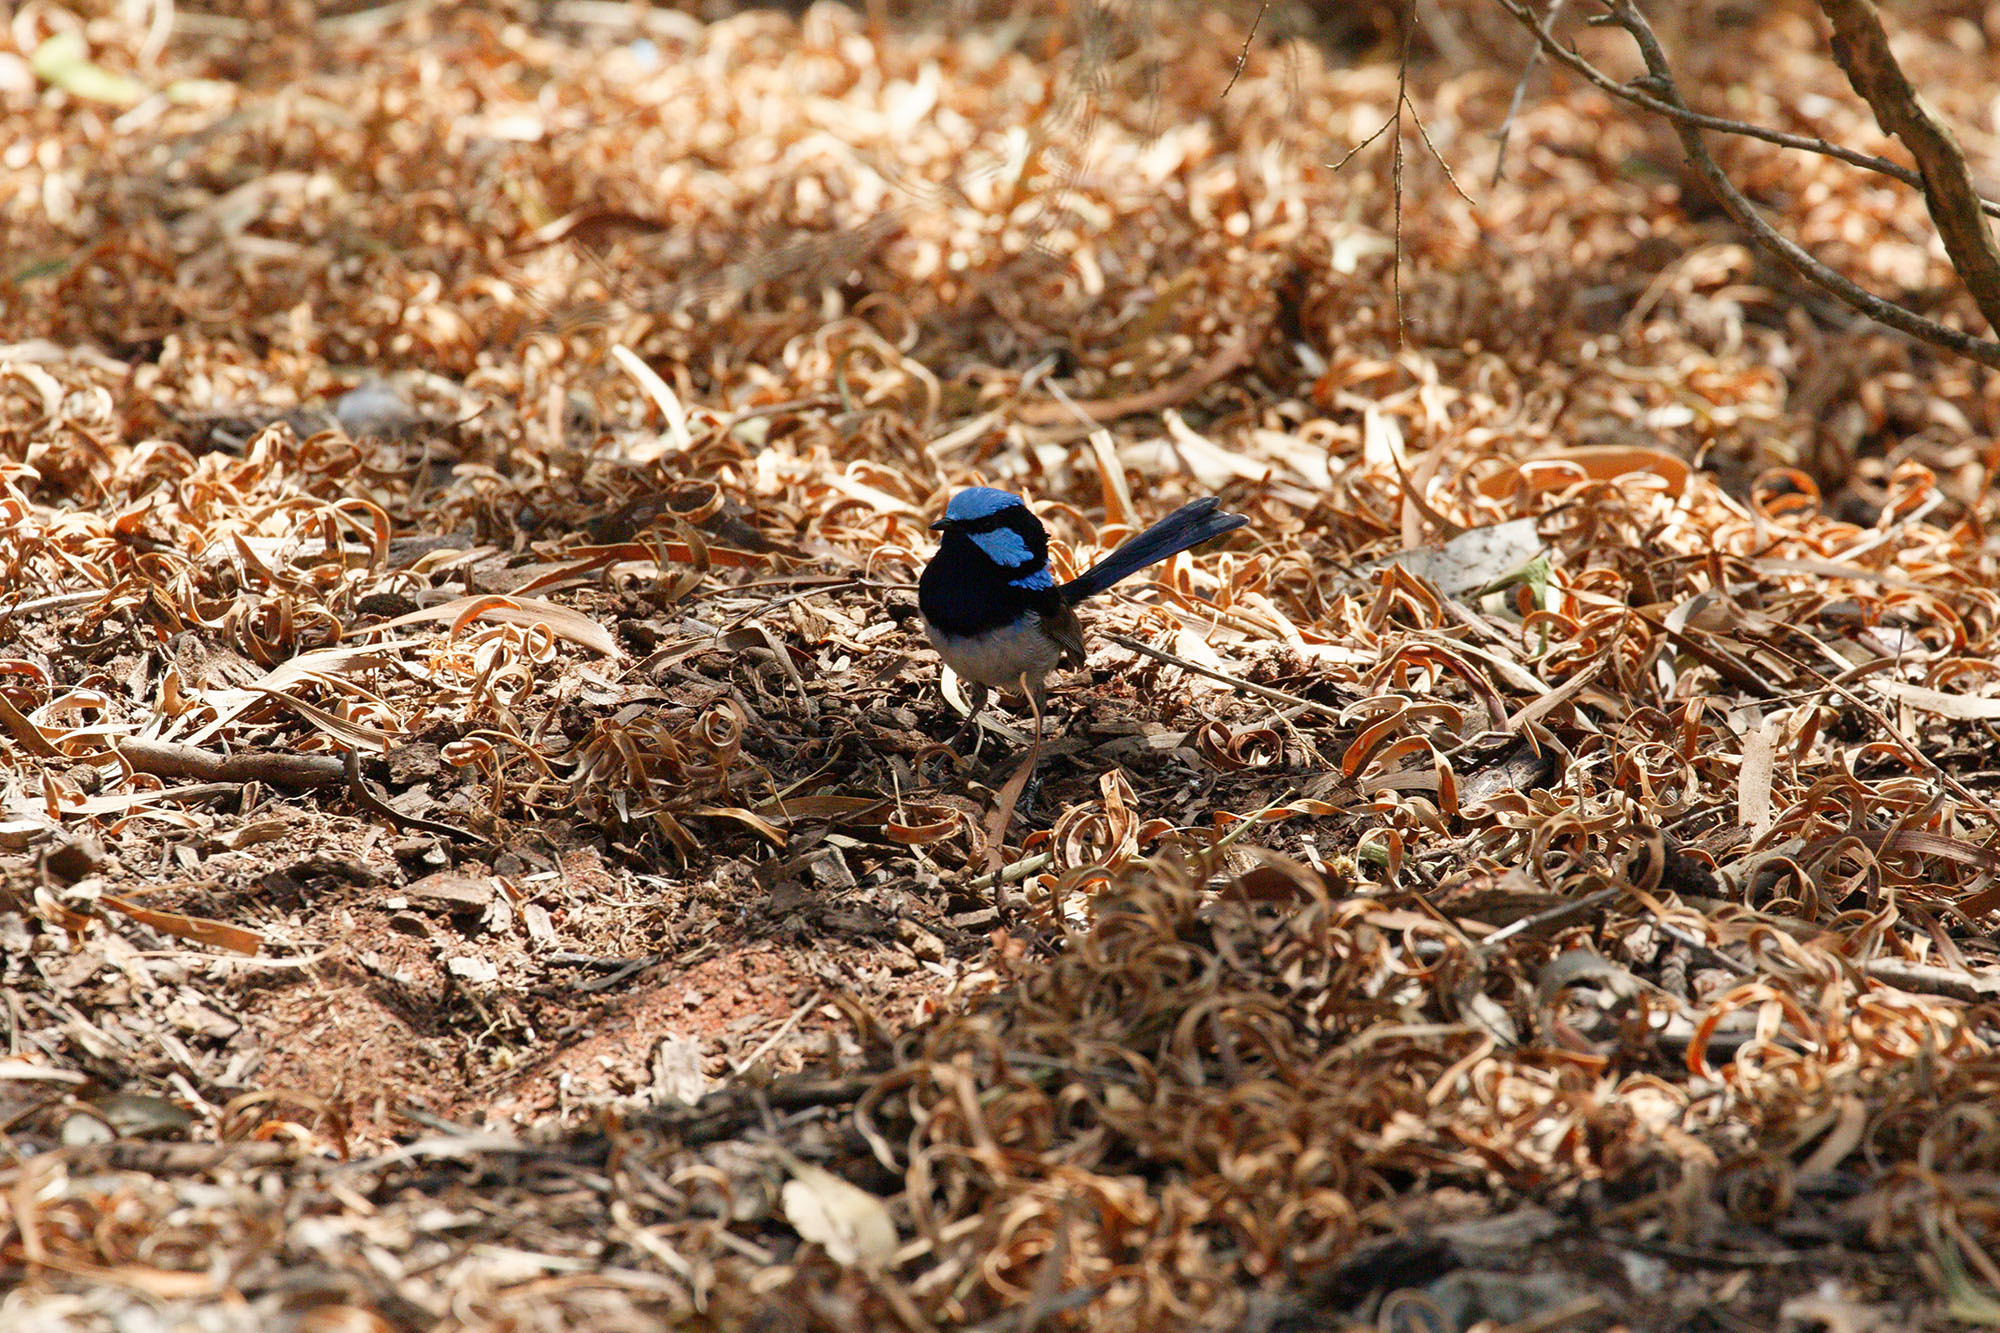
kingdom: Animalia
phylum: Chordata
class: Aves
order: Passeriformes
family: Maluridae
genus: Malurus
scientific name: Malurus cyaneus
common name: Superb fairywren
